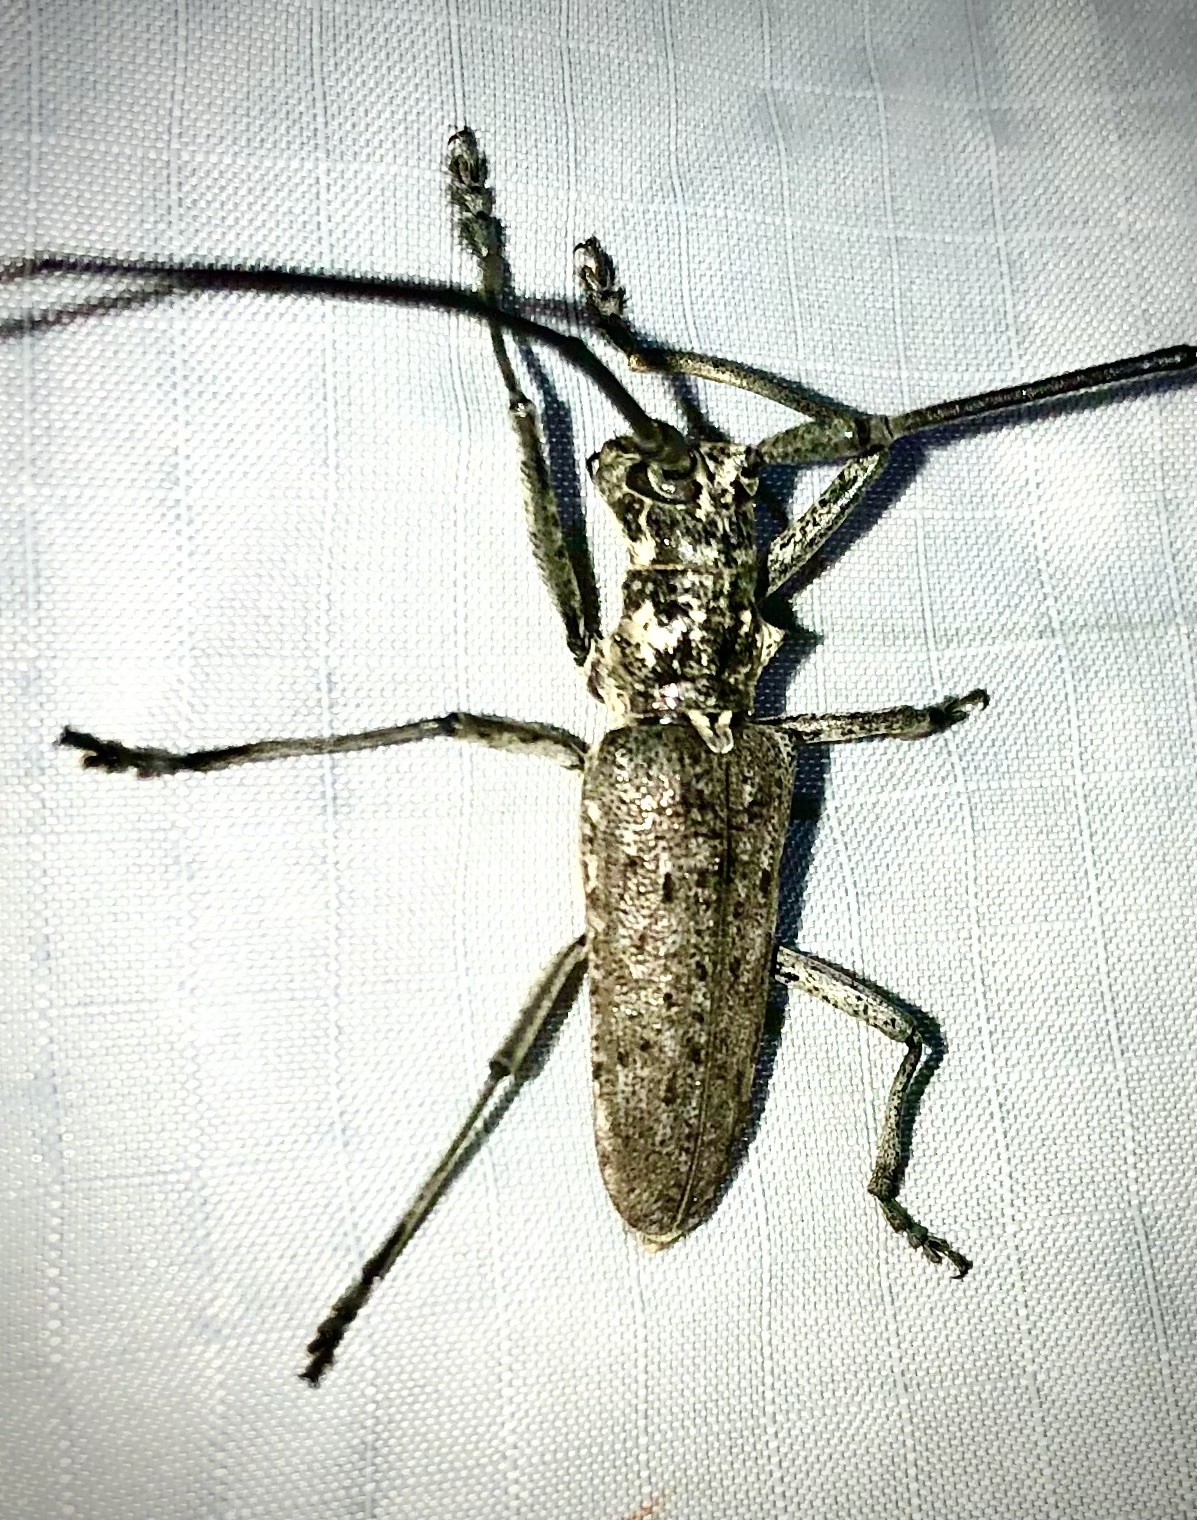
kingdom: Animalia
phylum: Arthropoda
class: Insecta
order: Coleoptera
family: Cerambycidae
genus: Monochamus
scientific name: Monochamus notatus
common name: Northeastern pine sawyer beetle
